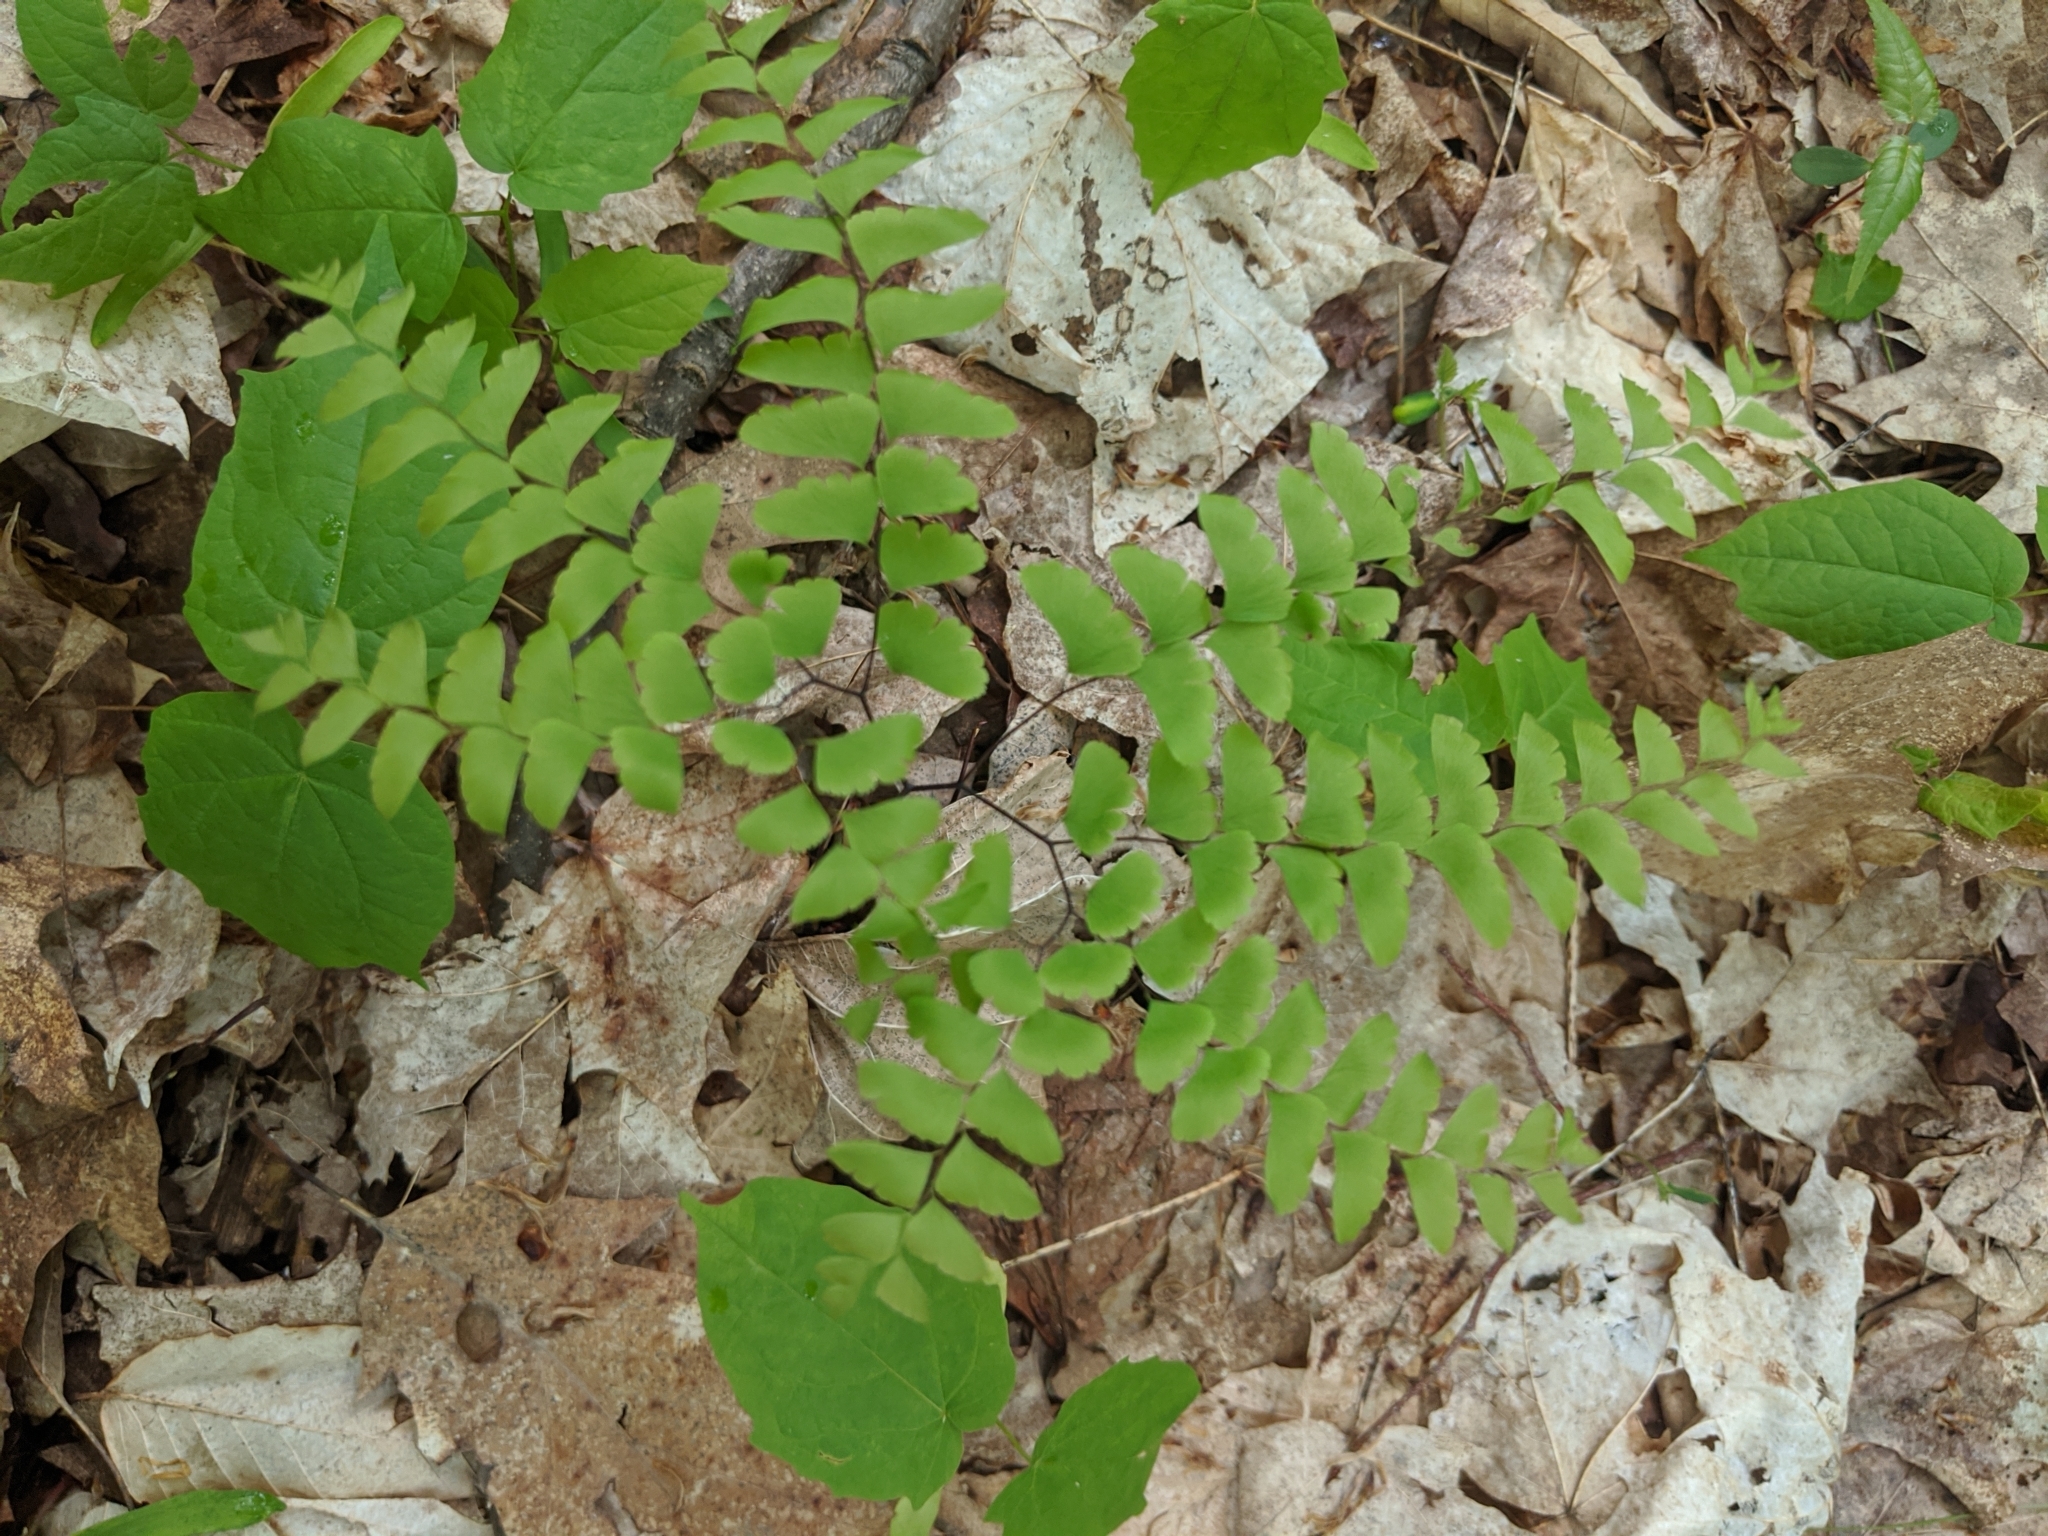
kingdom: Plantae
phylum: Tracheophyta
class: Polypodiopsida
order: Polypodiales
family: Pteridaceae
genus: Adiantum
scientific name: Adiantum pedatum
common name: Five-finger fern
